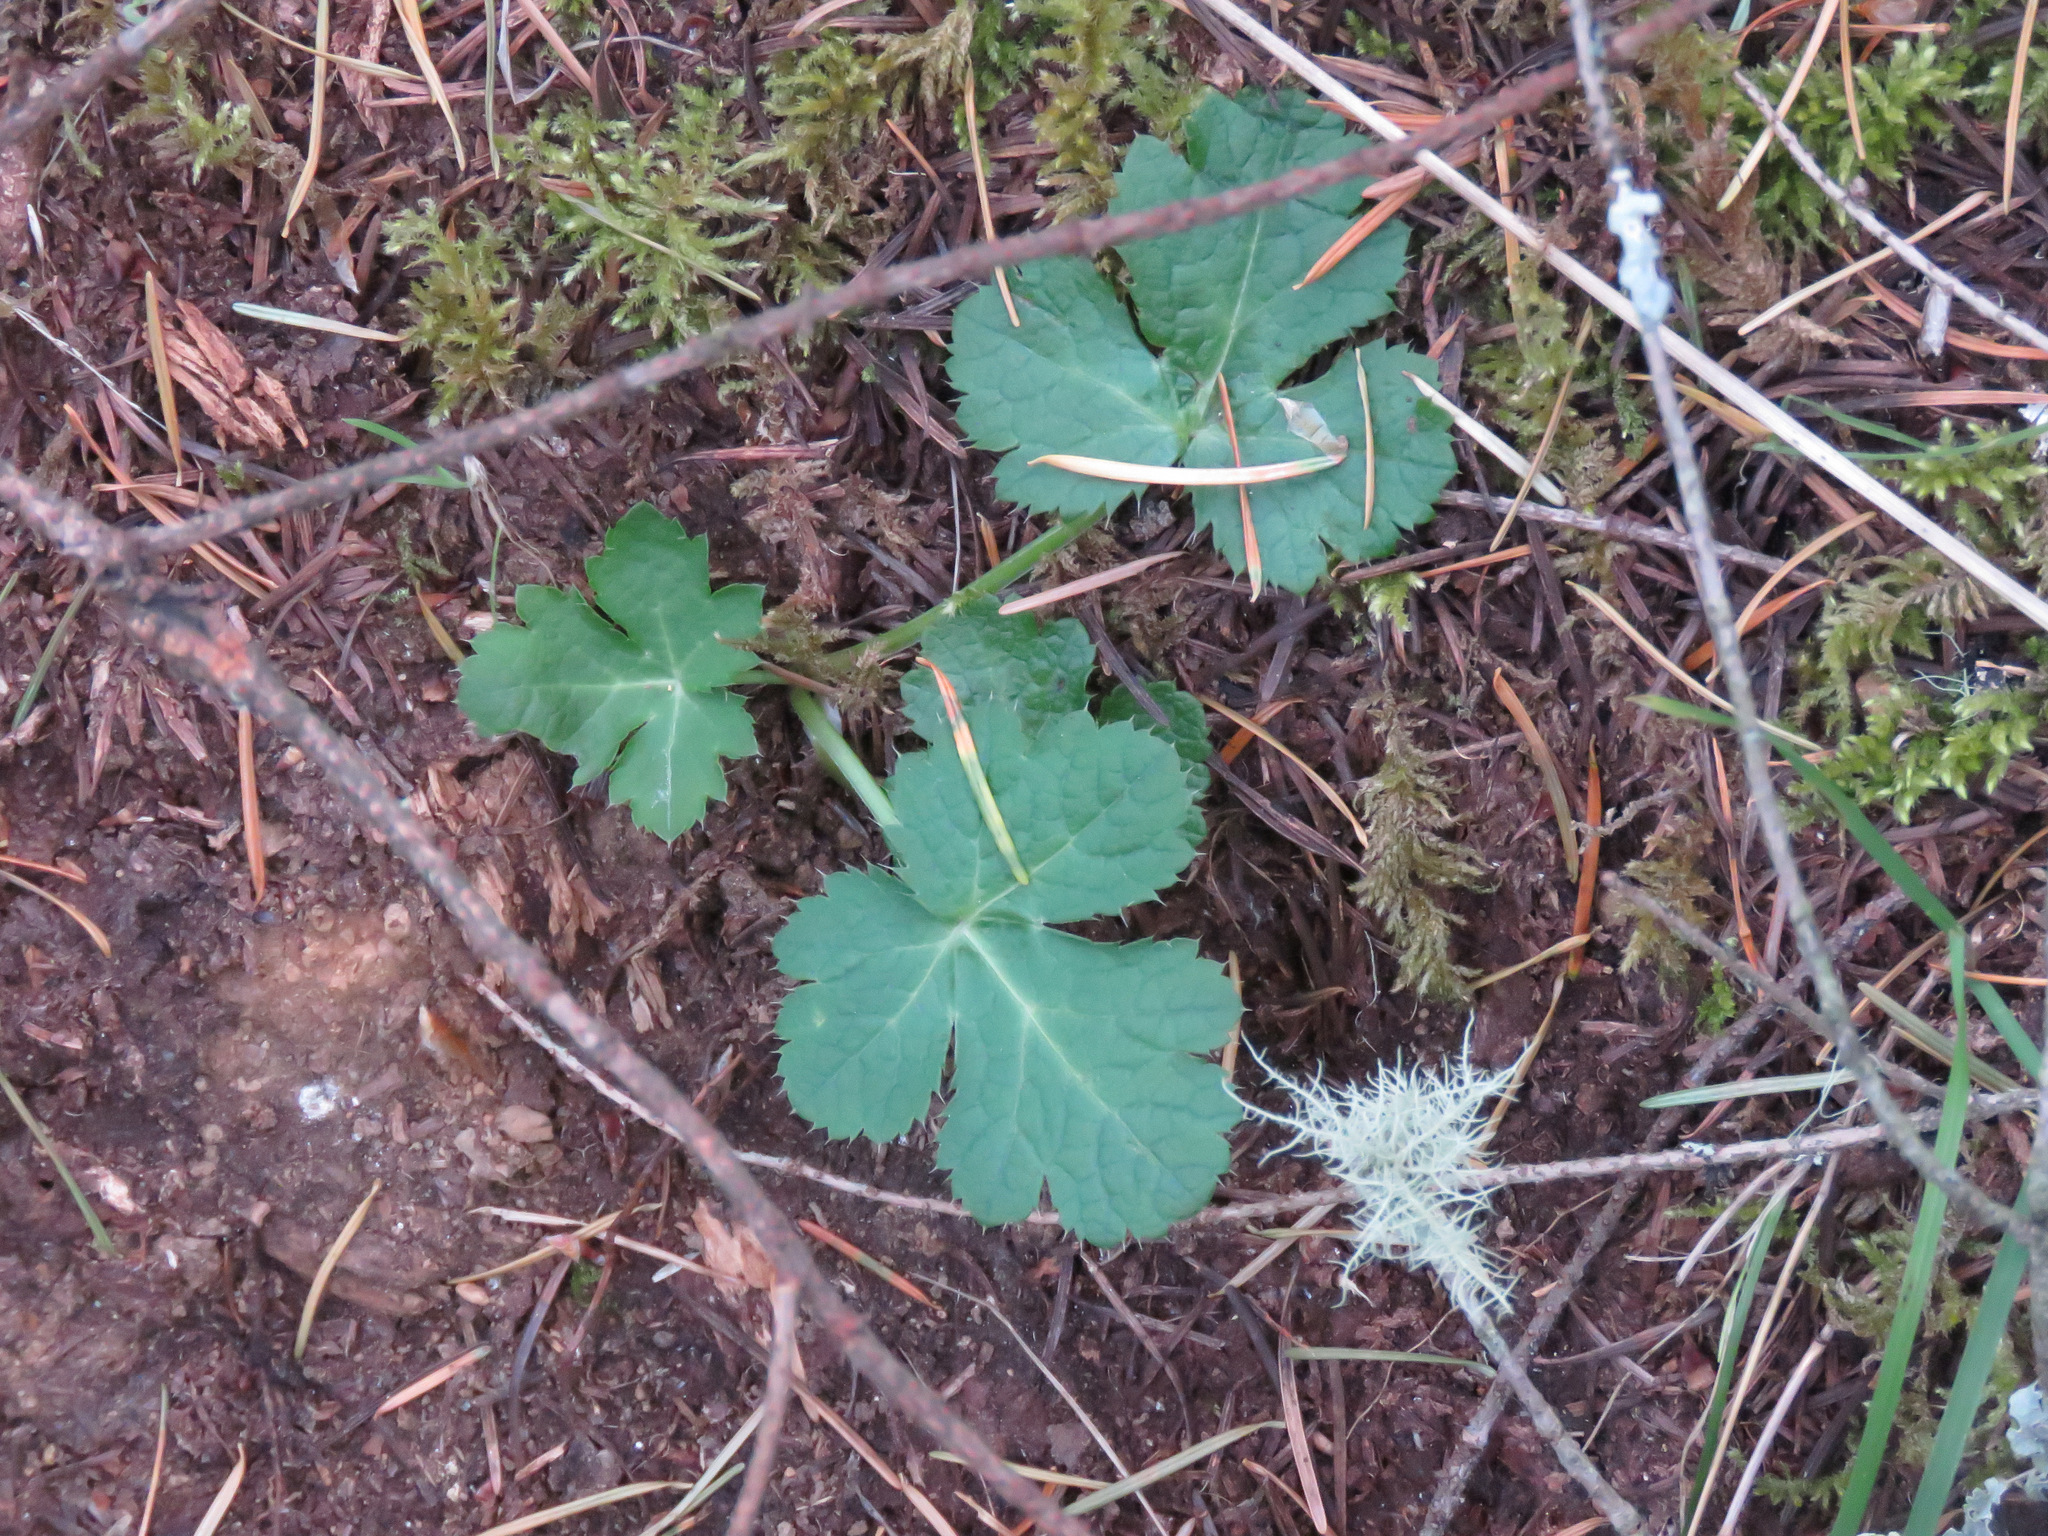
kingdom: Plantae
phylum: Tracheophyta
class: Magnoliopsida
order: Apiales
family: Apiaceae
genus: Sanicula
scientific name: Sanicula crassicaulis
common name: Western snakeroot
